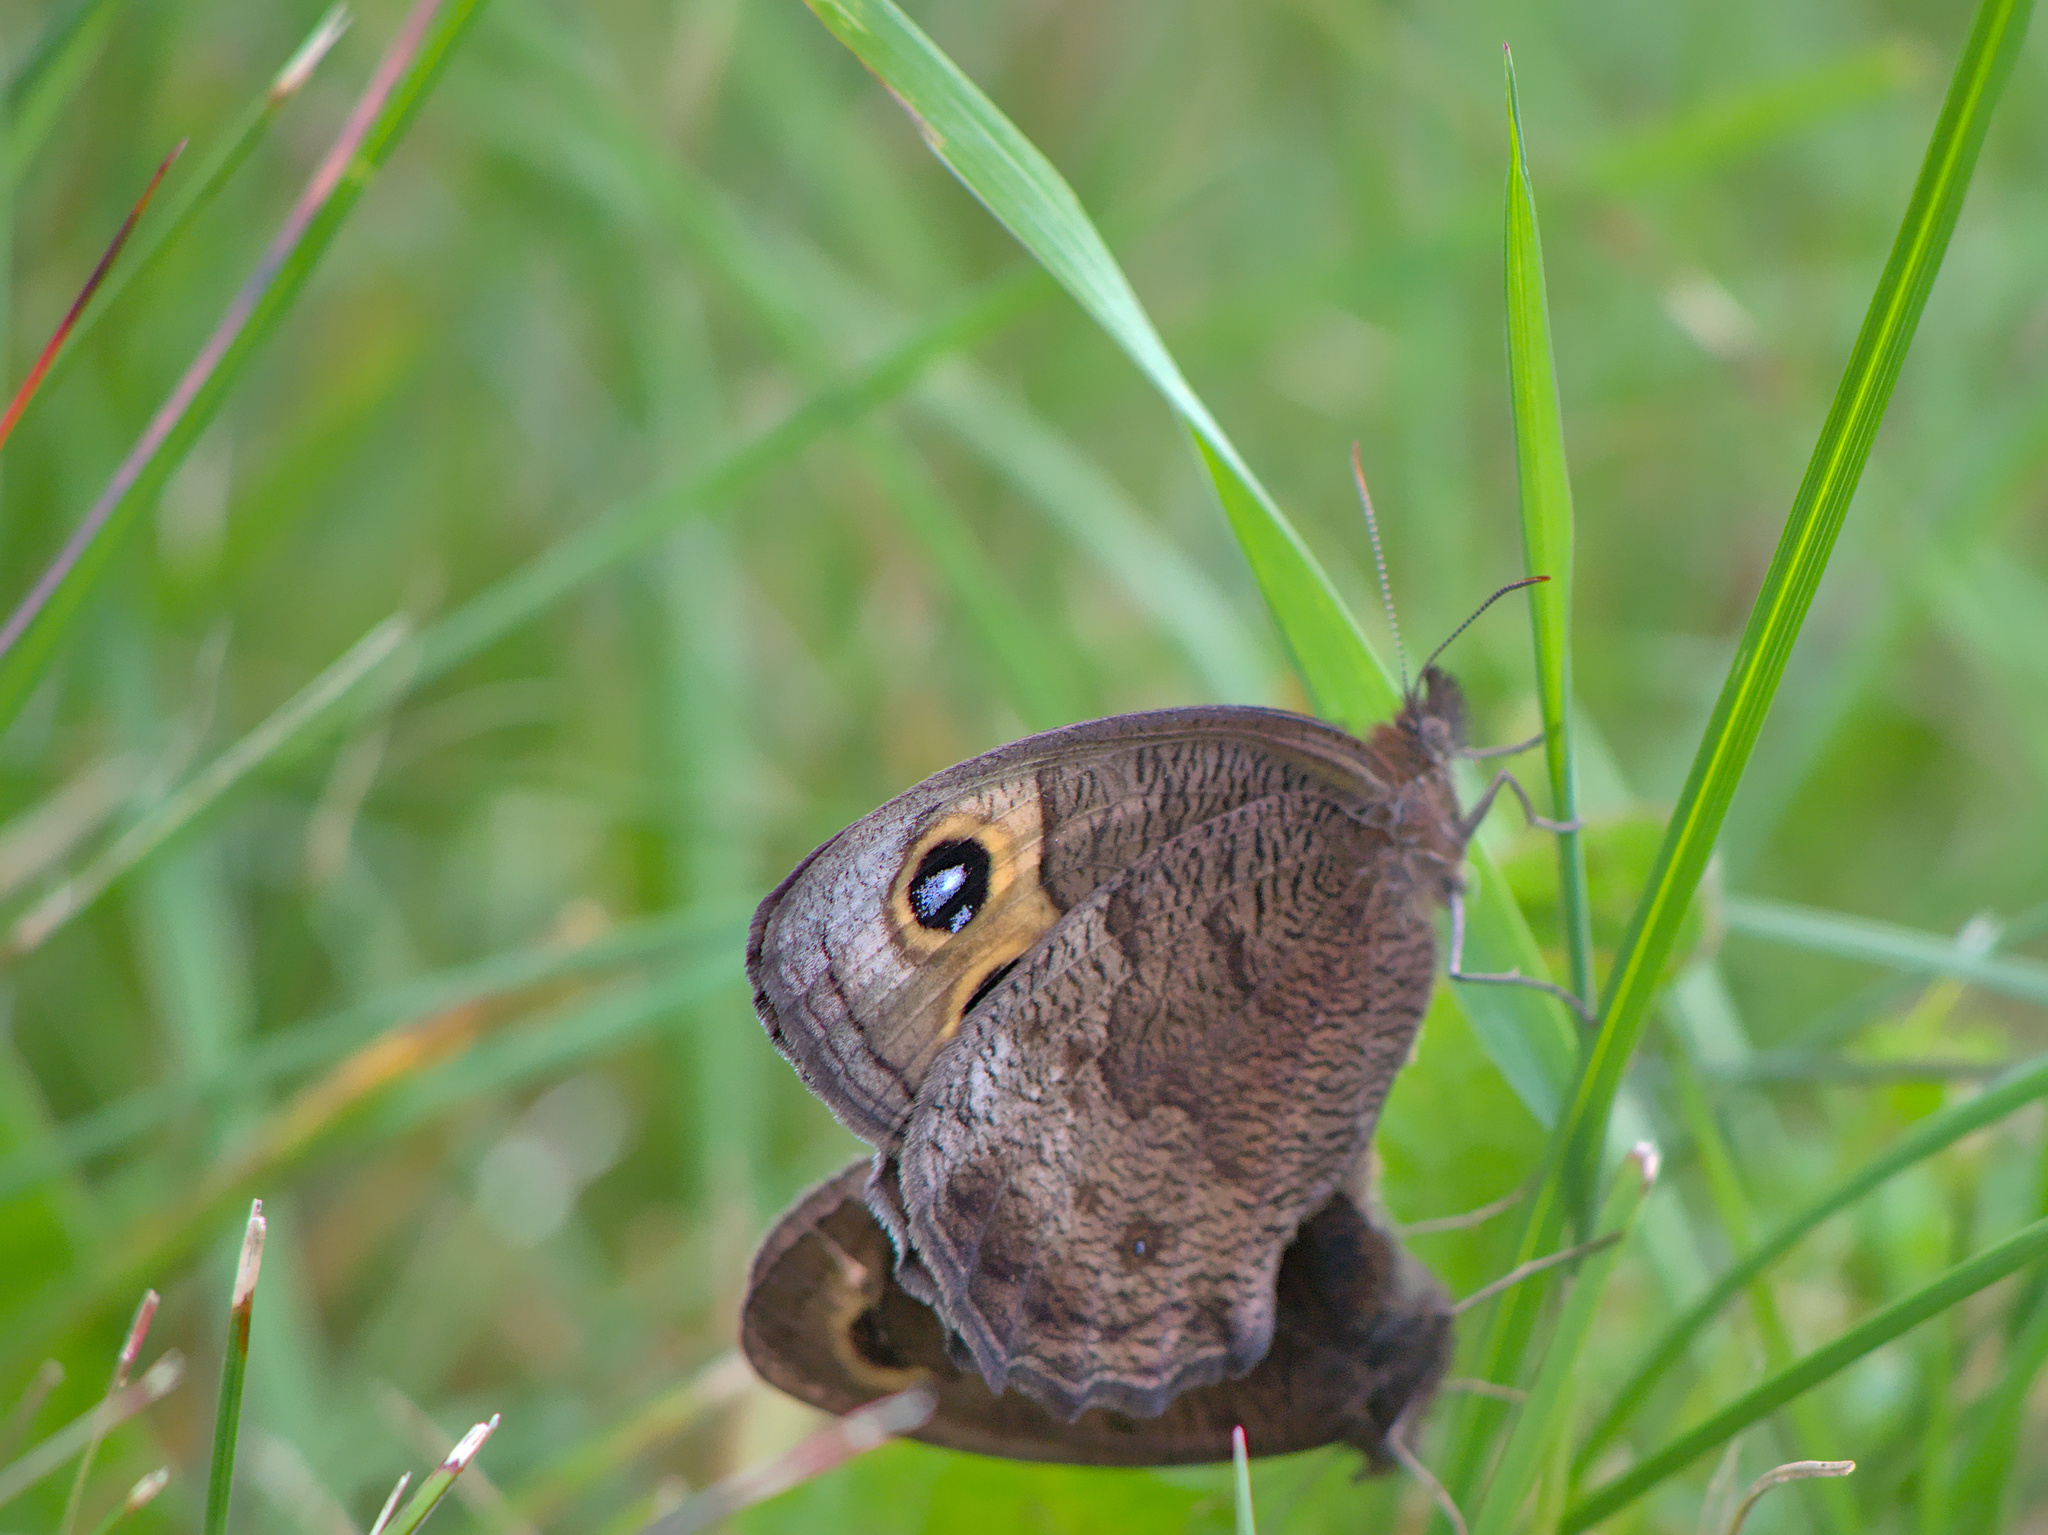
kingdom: Animalia
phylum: Arthropoda
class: Insecta
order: Lepidoptera
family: Nymphalidae
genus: Cercyonis
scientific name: Cercyonis pegala
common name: Common wood-nymph
